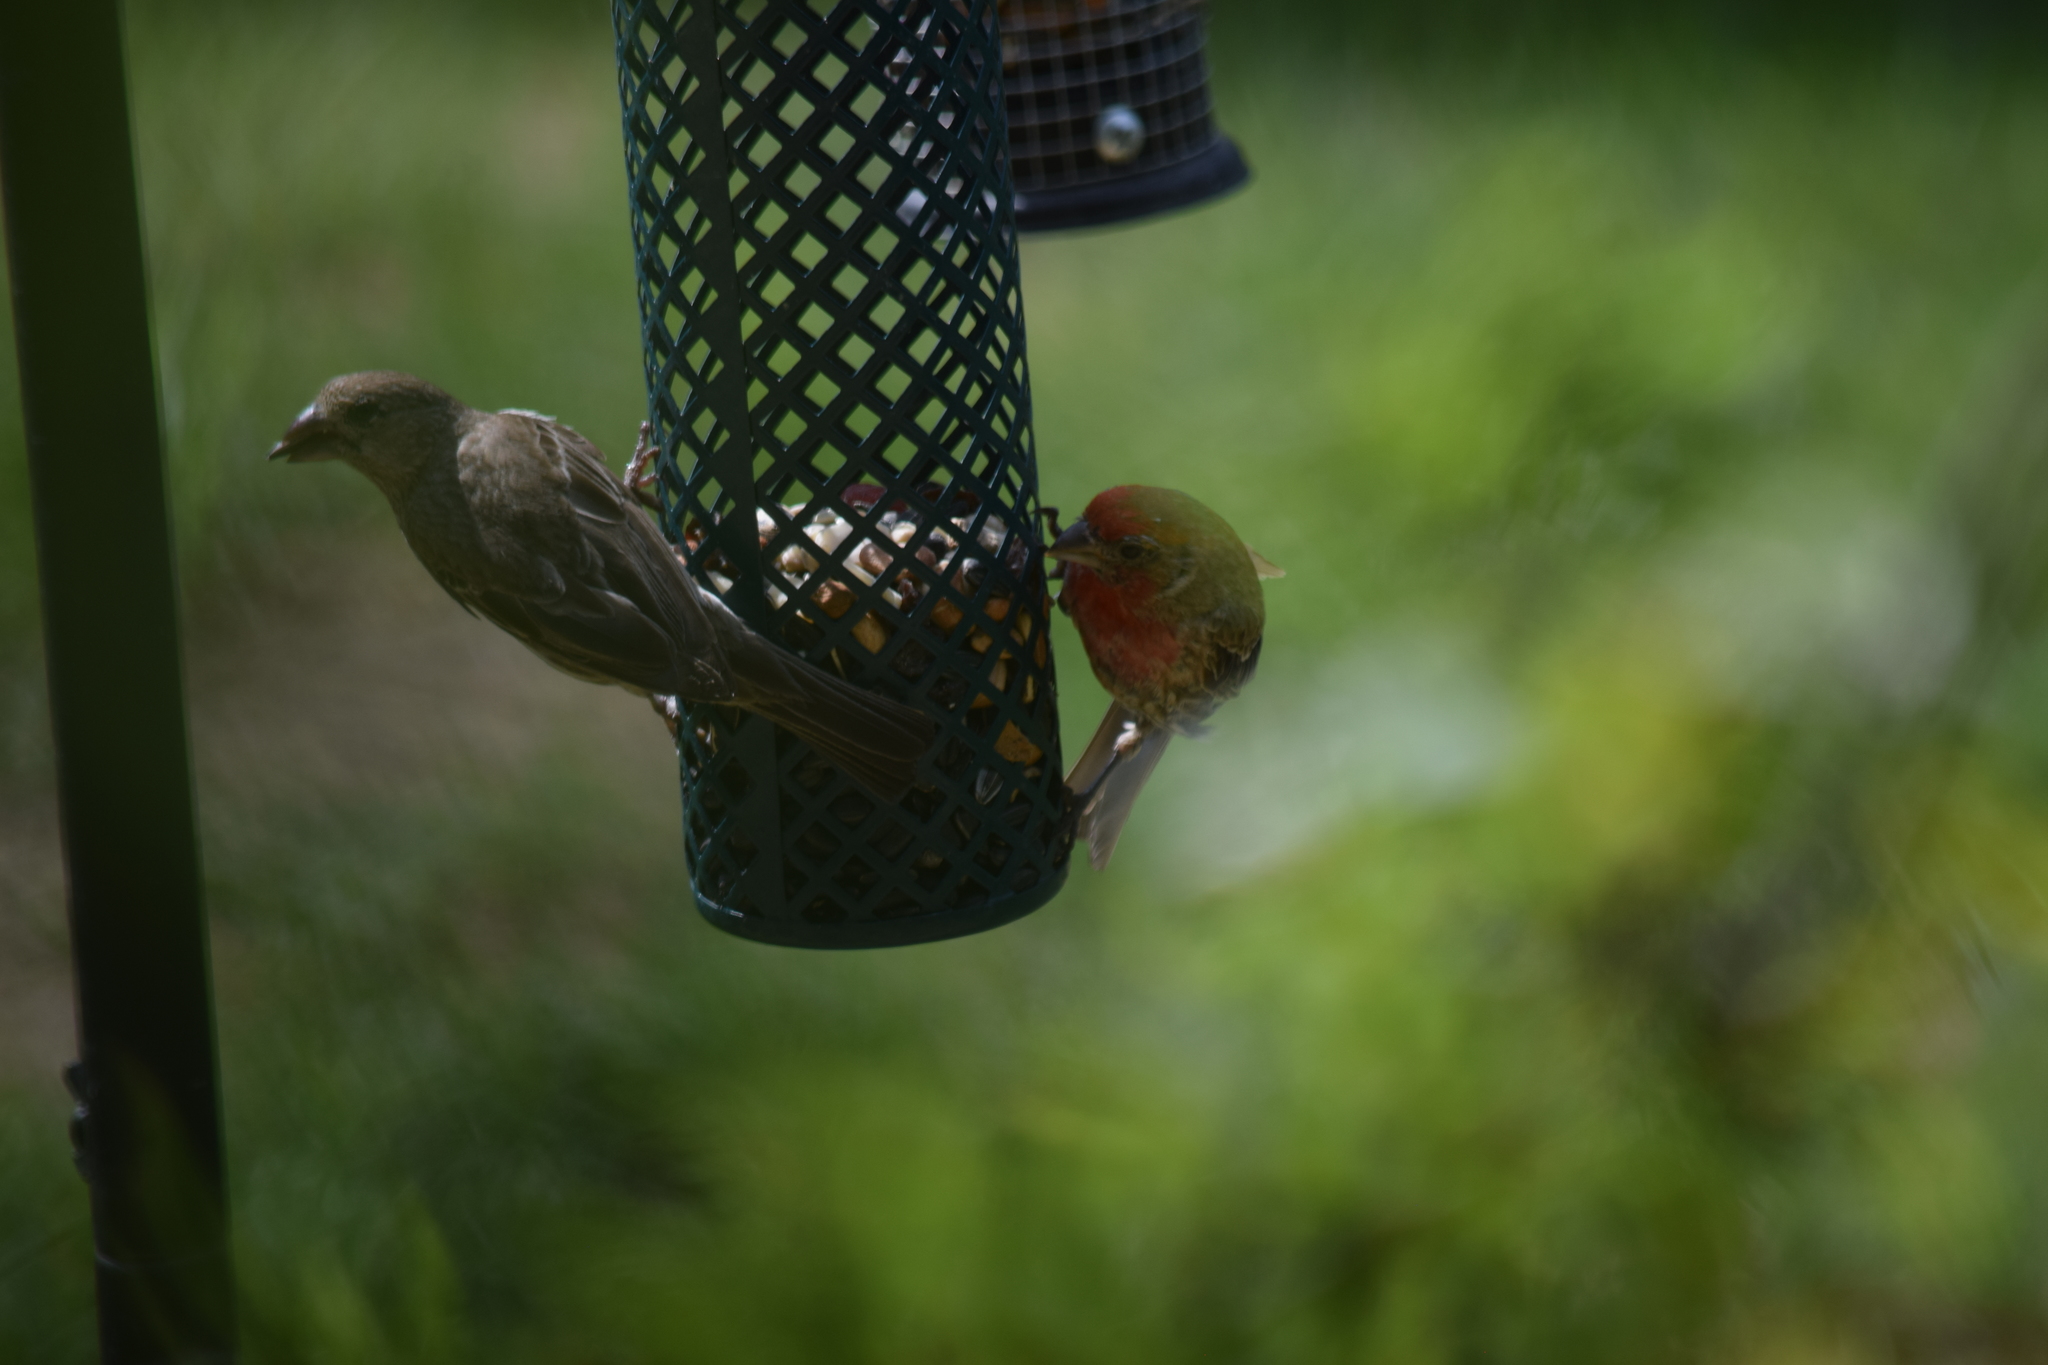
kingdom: Animalia
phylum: Chordata
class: Aves
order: Passeriformes
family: Fringillidae
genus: Haemorhous
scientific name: Haemorhous mexicanus
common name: House finch
